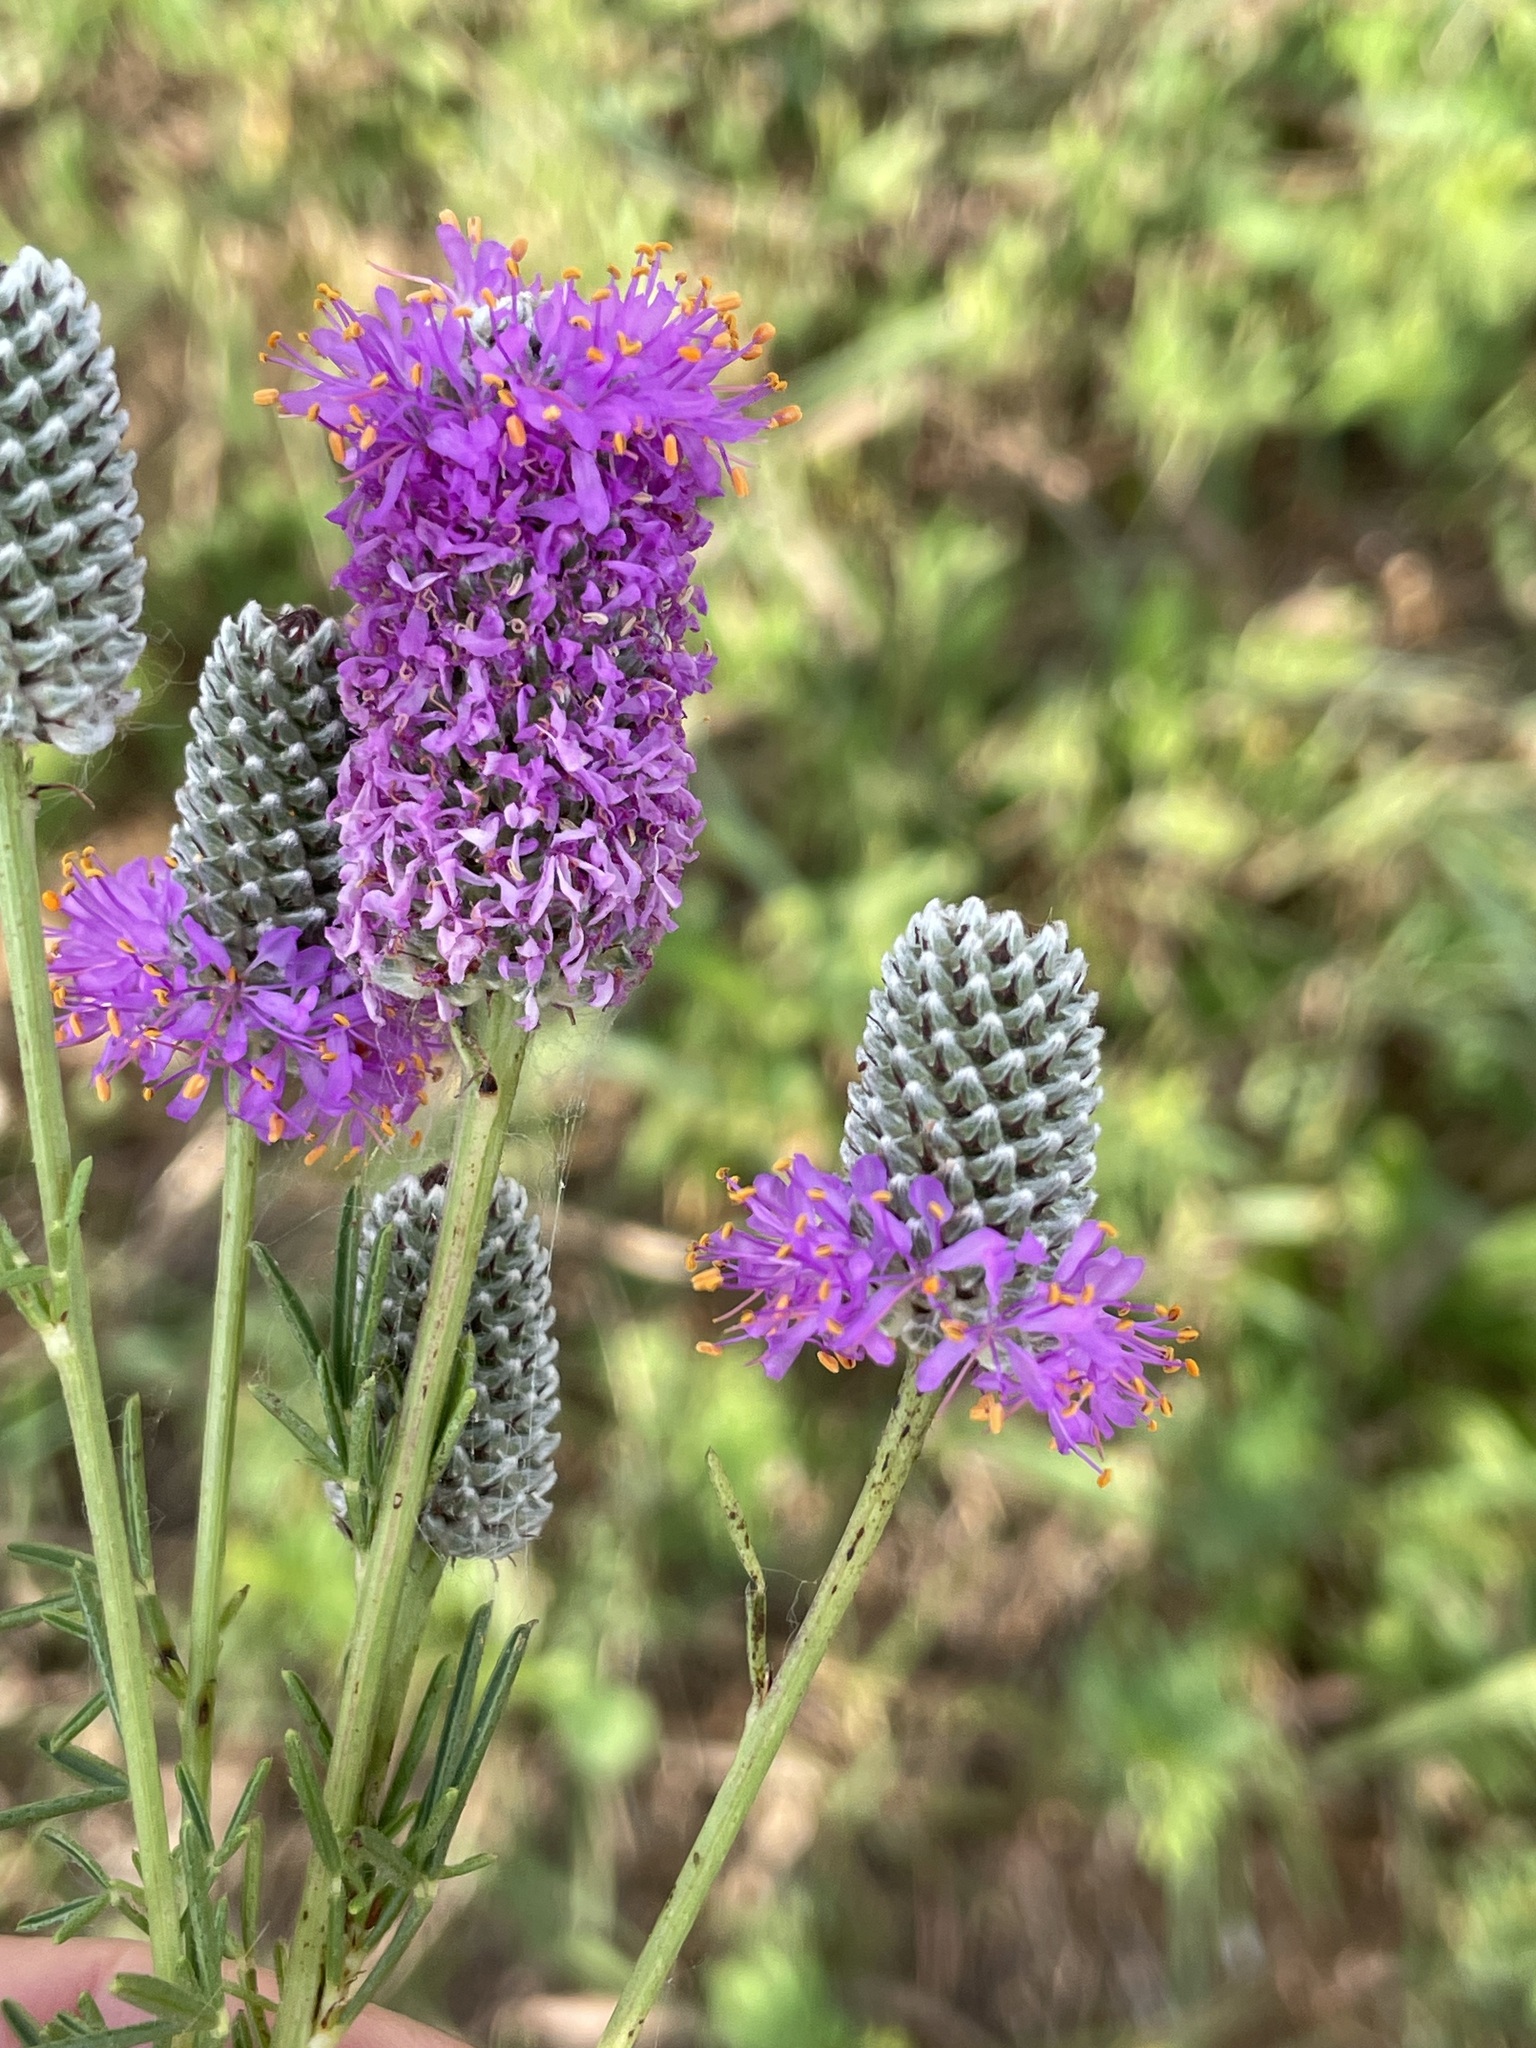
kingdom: Plantae
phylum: Tracheophyta
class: Magnoliopsida
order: Fabales
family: Fabaceae
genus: Dalea
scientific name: Dalea purpurea
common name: Purple prairie-clover
